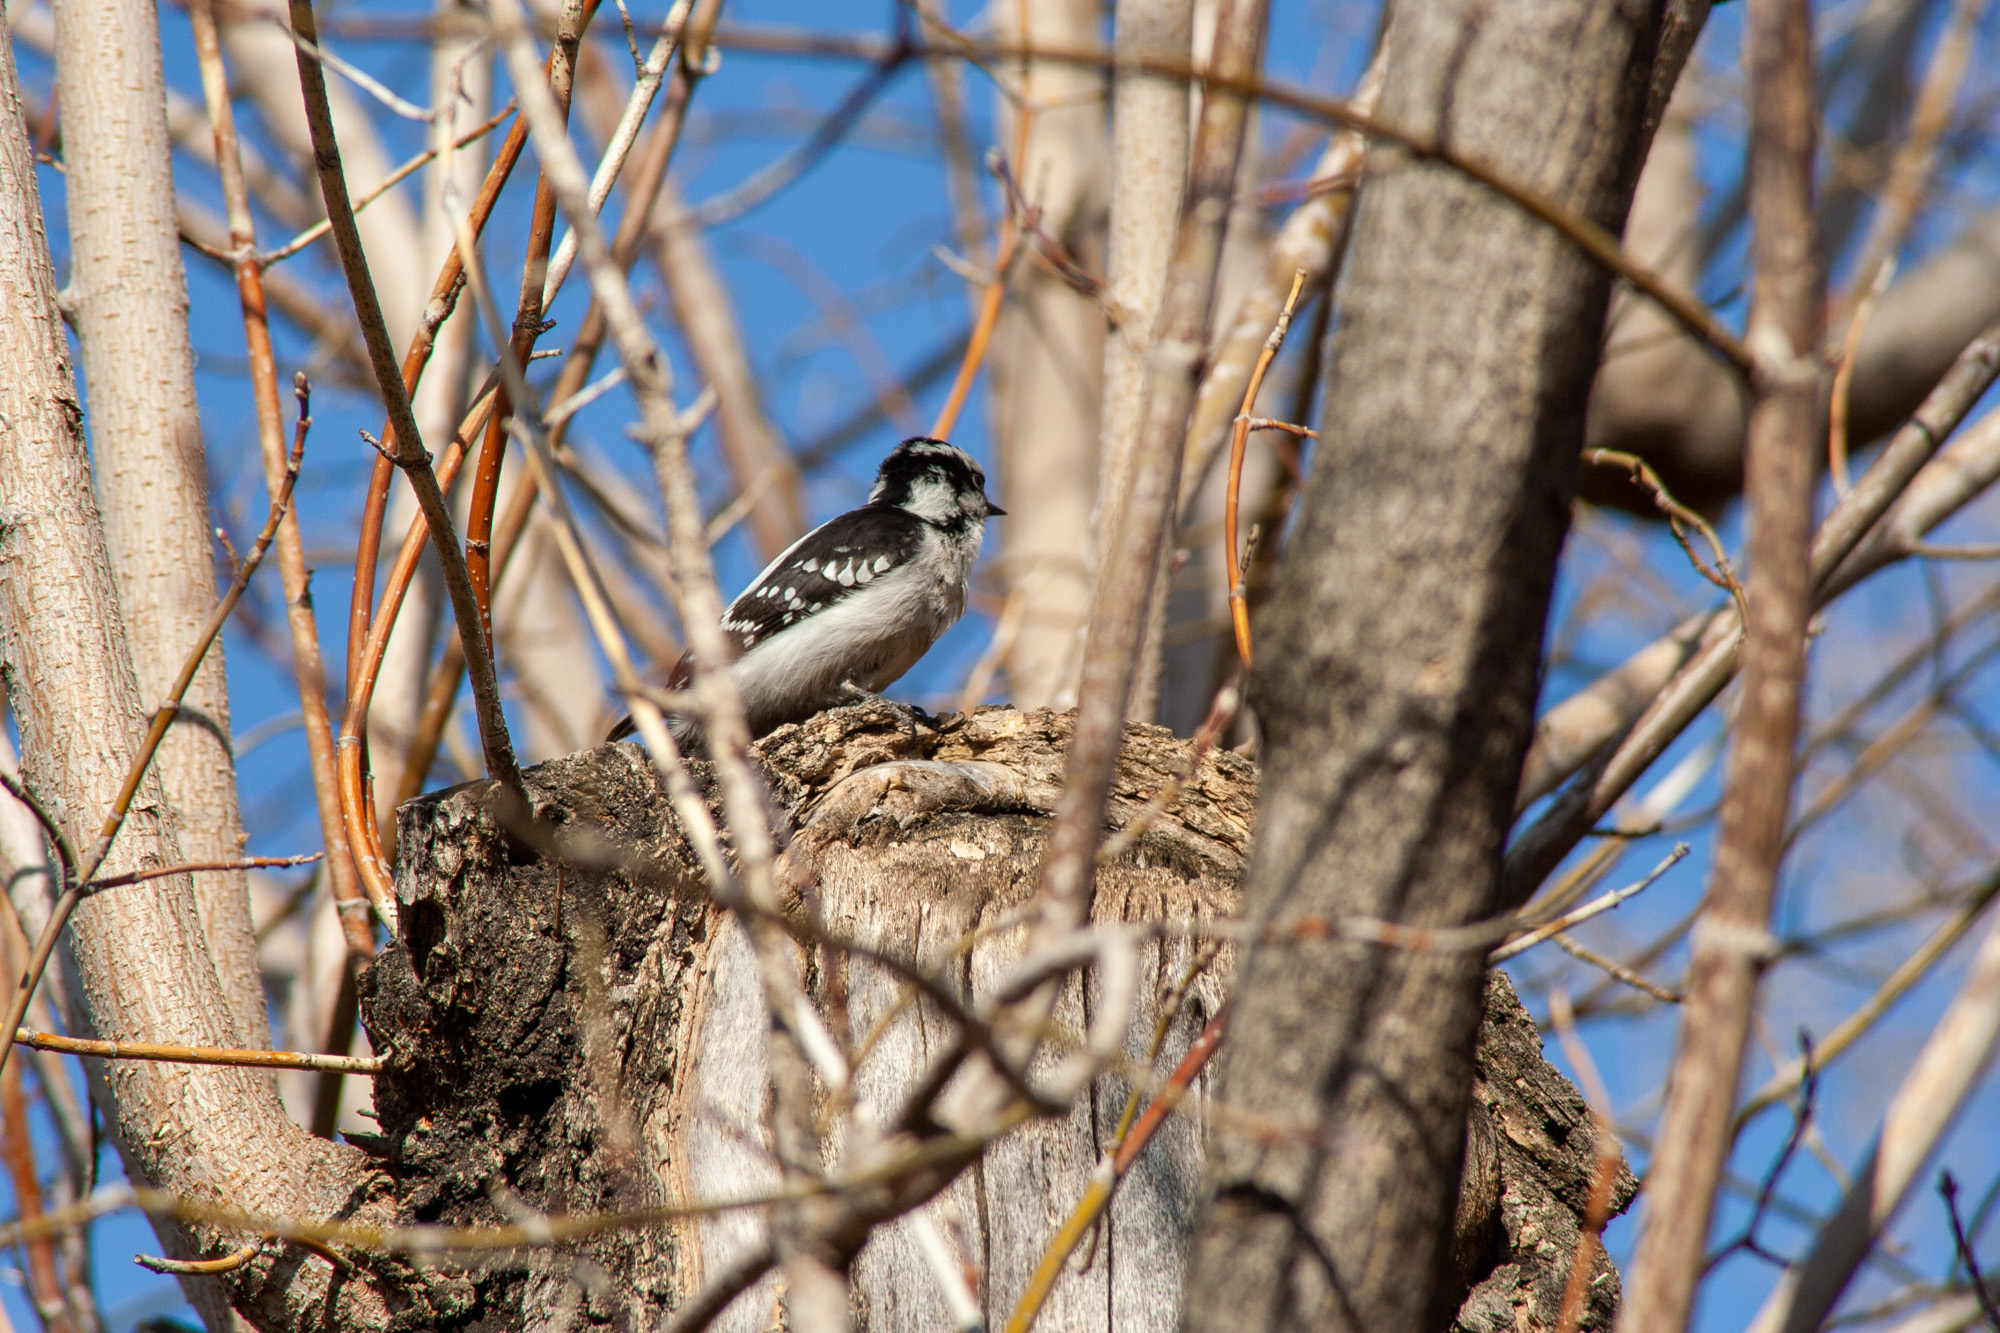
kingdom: Animalia
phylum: Chordata
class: Aves
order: Piciformes
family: Picidae
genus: Dryobates
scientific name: Dryobates pubescens
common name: Downy woodpecker
